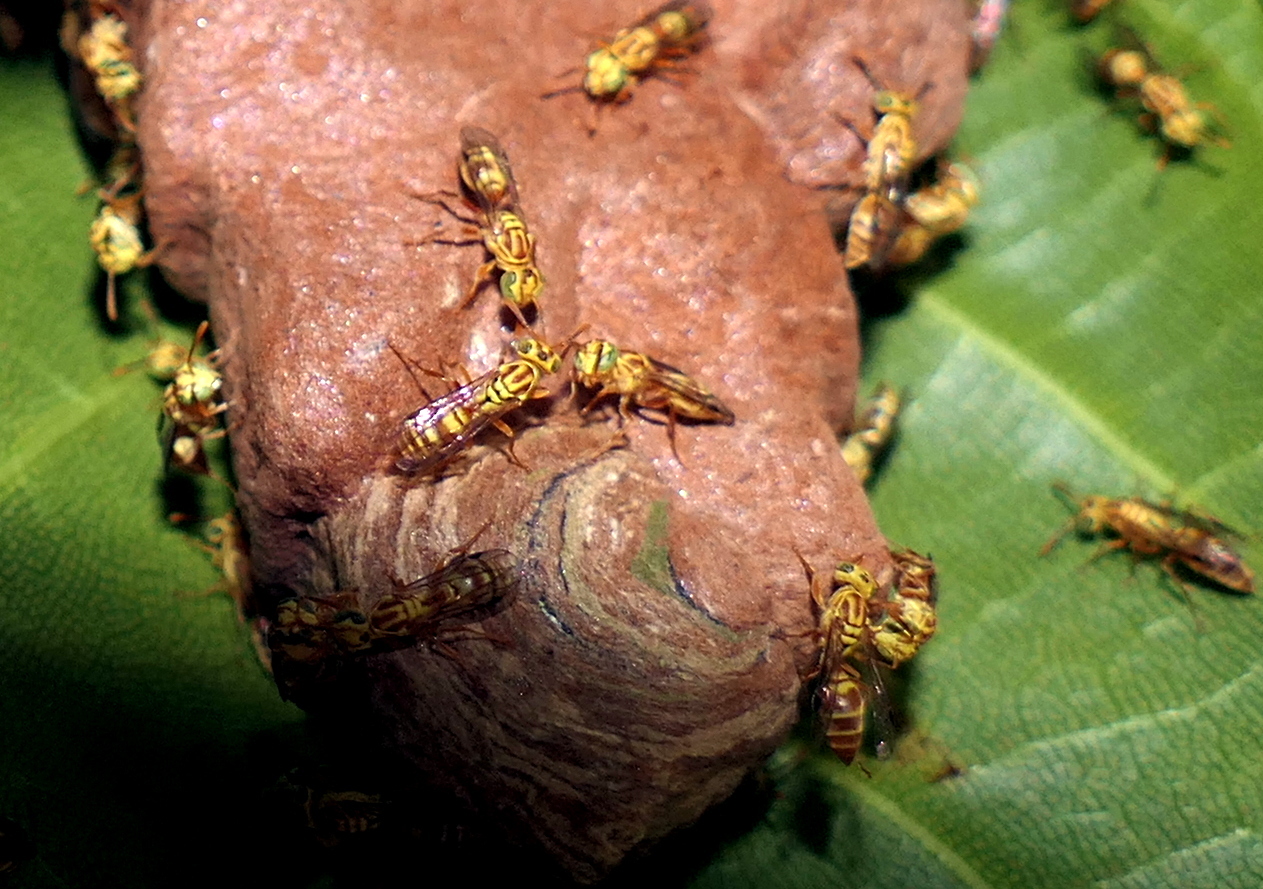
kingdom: Animalia
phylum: Arthropoda
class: Insecta
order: Hymenoptera
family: Vespidae
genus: Protopolybia
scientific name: Protopolybia potiguara
